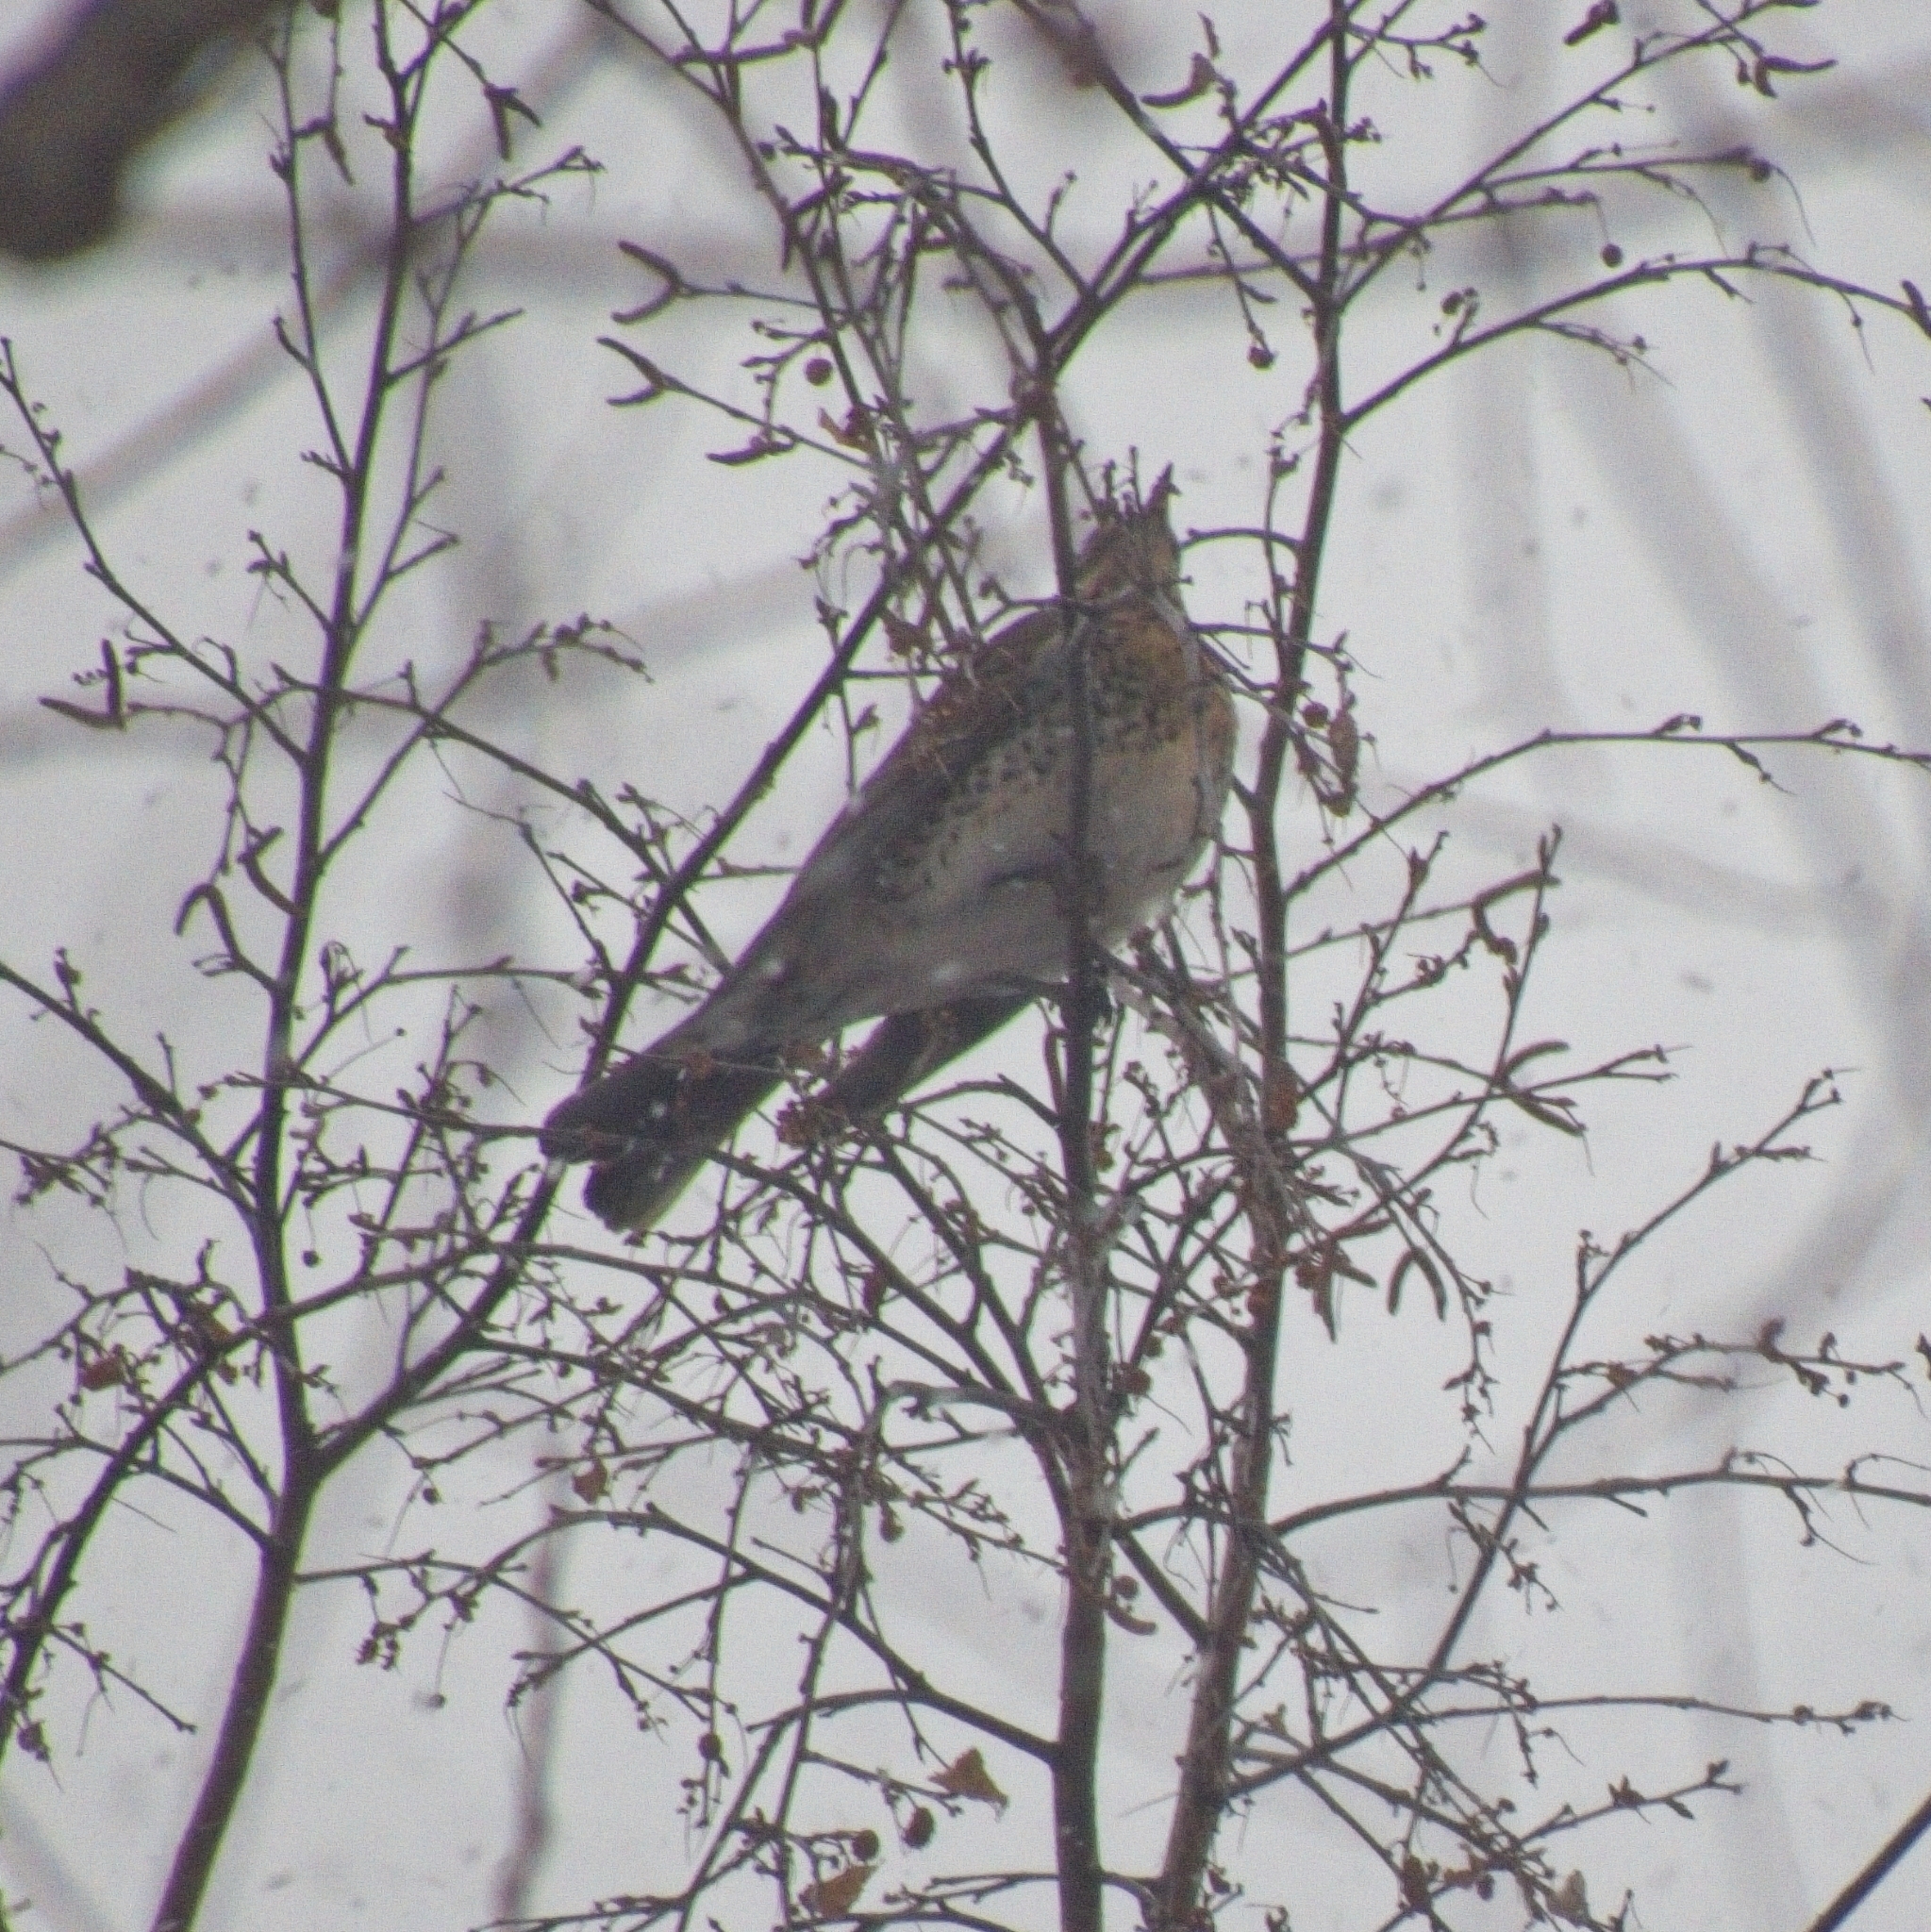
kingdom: Animalia
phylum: Chordata
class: Aves
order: Passeriformes
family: Turdidae
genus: Turdus
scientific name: Turdus pilaris
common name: Fieldfare
